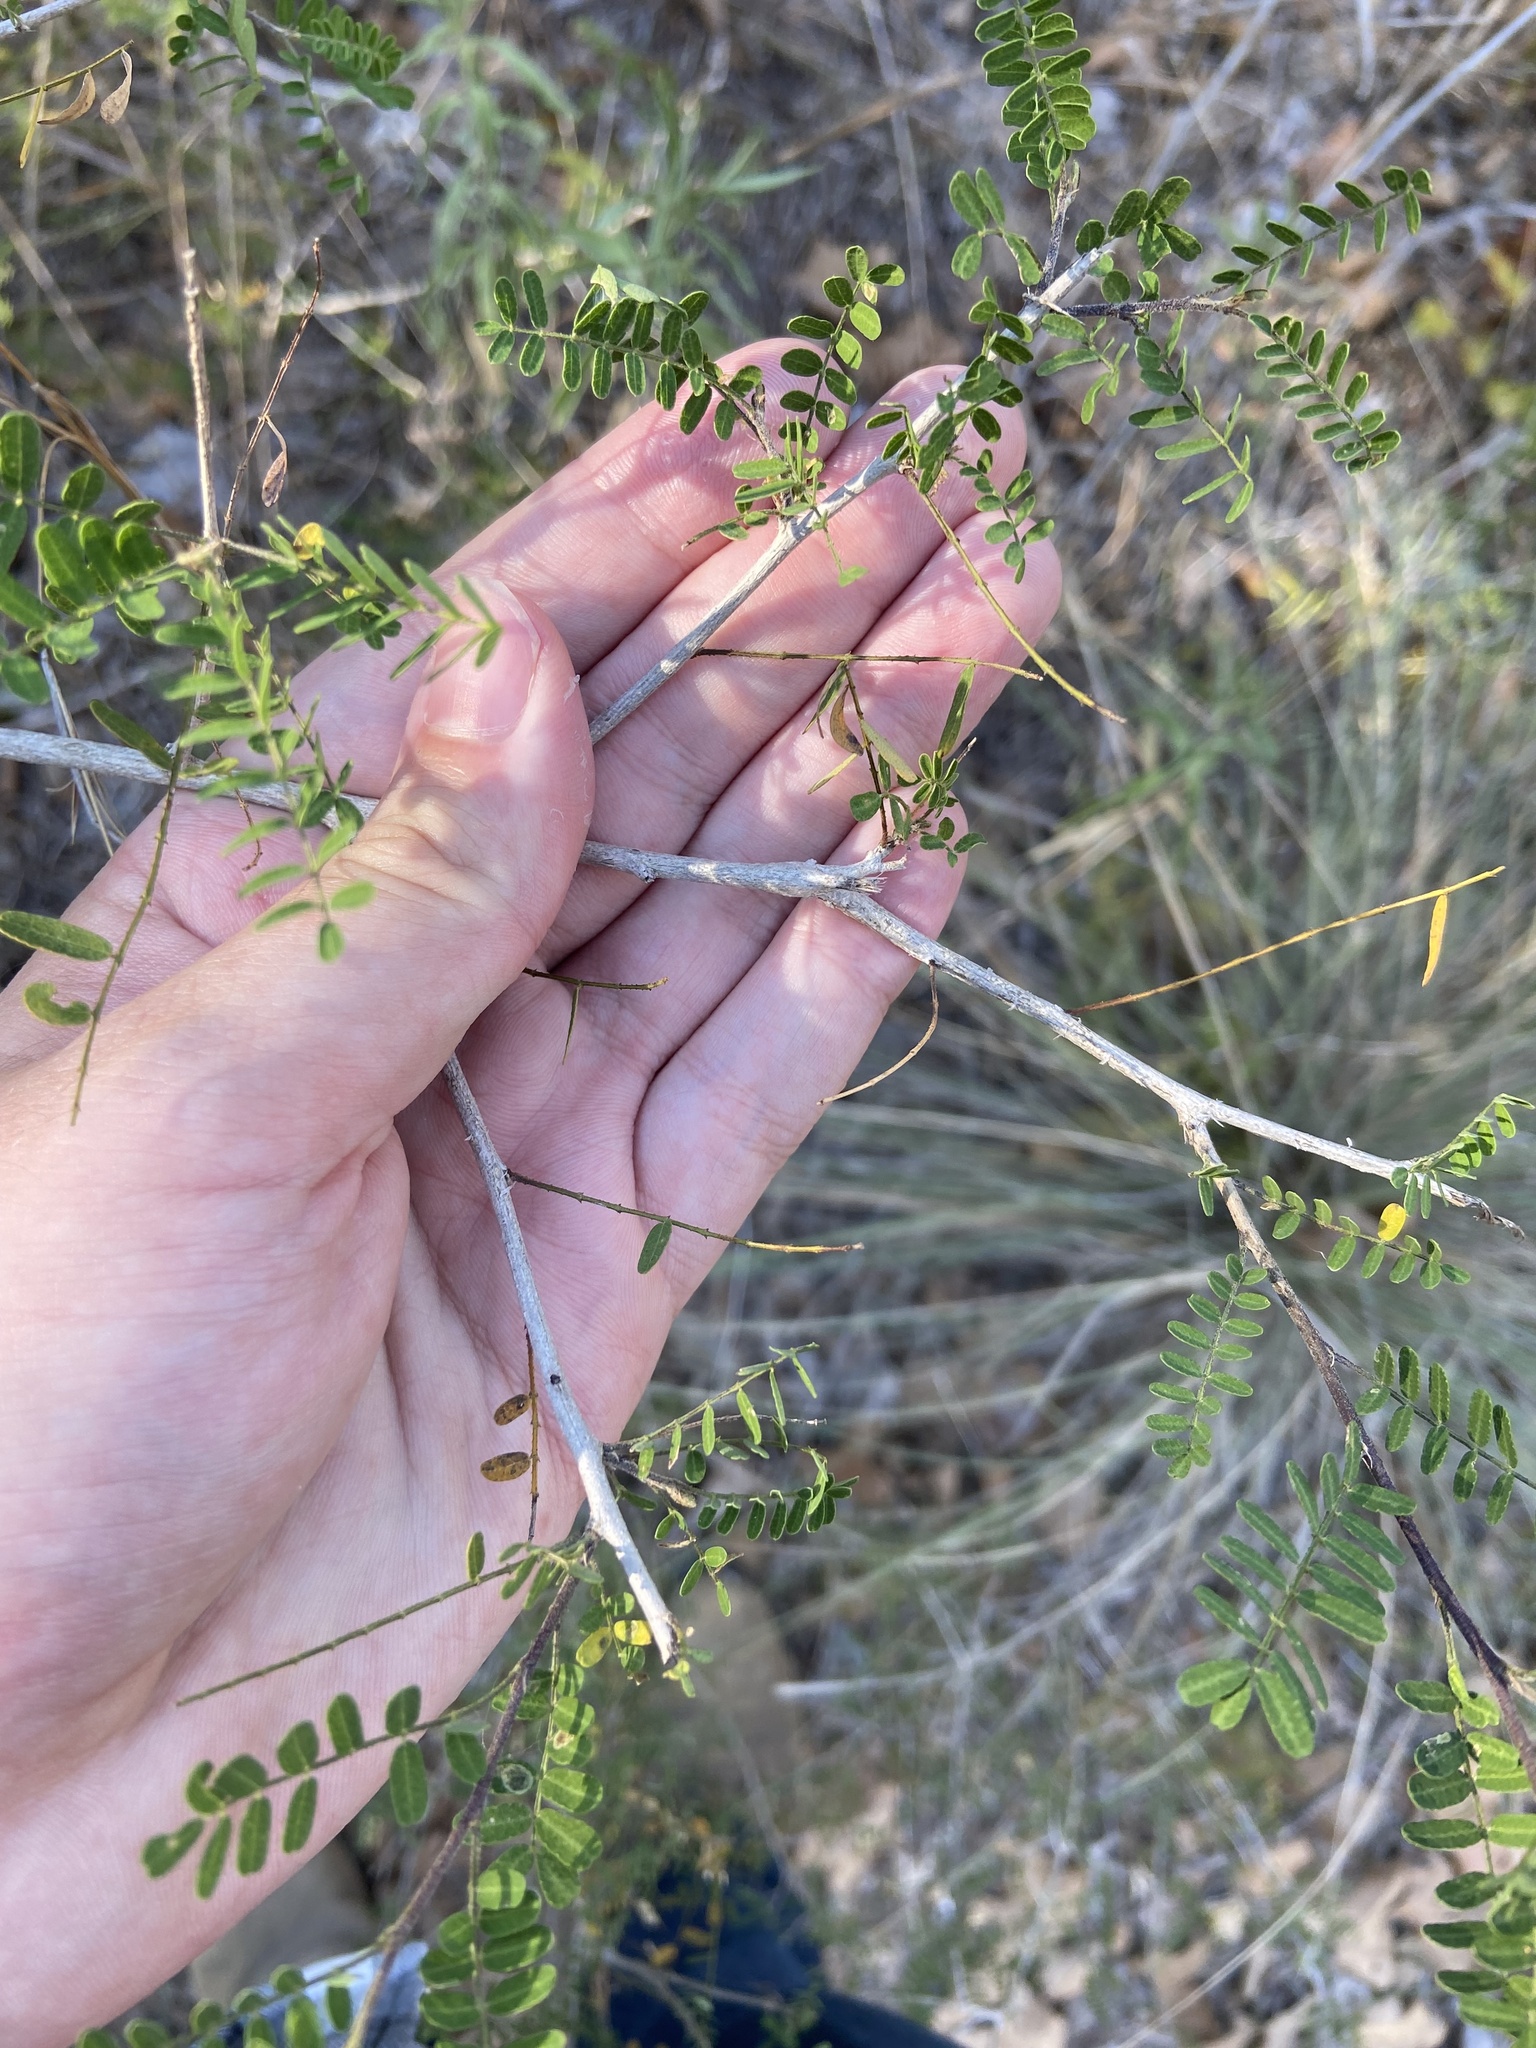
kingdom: Plantae
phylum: Tracheophyta
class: Magnoliopsida
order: Fabales
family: Fabaceae
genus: Eysenhardtia
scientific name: Eysenhardtia texana
